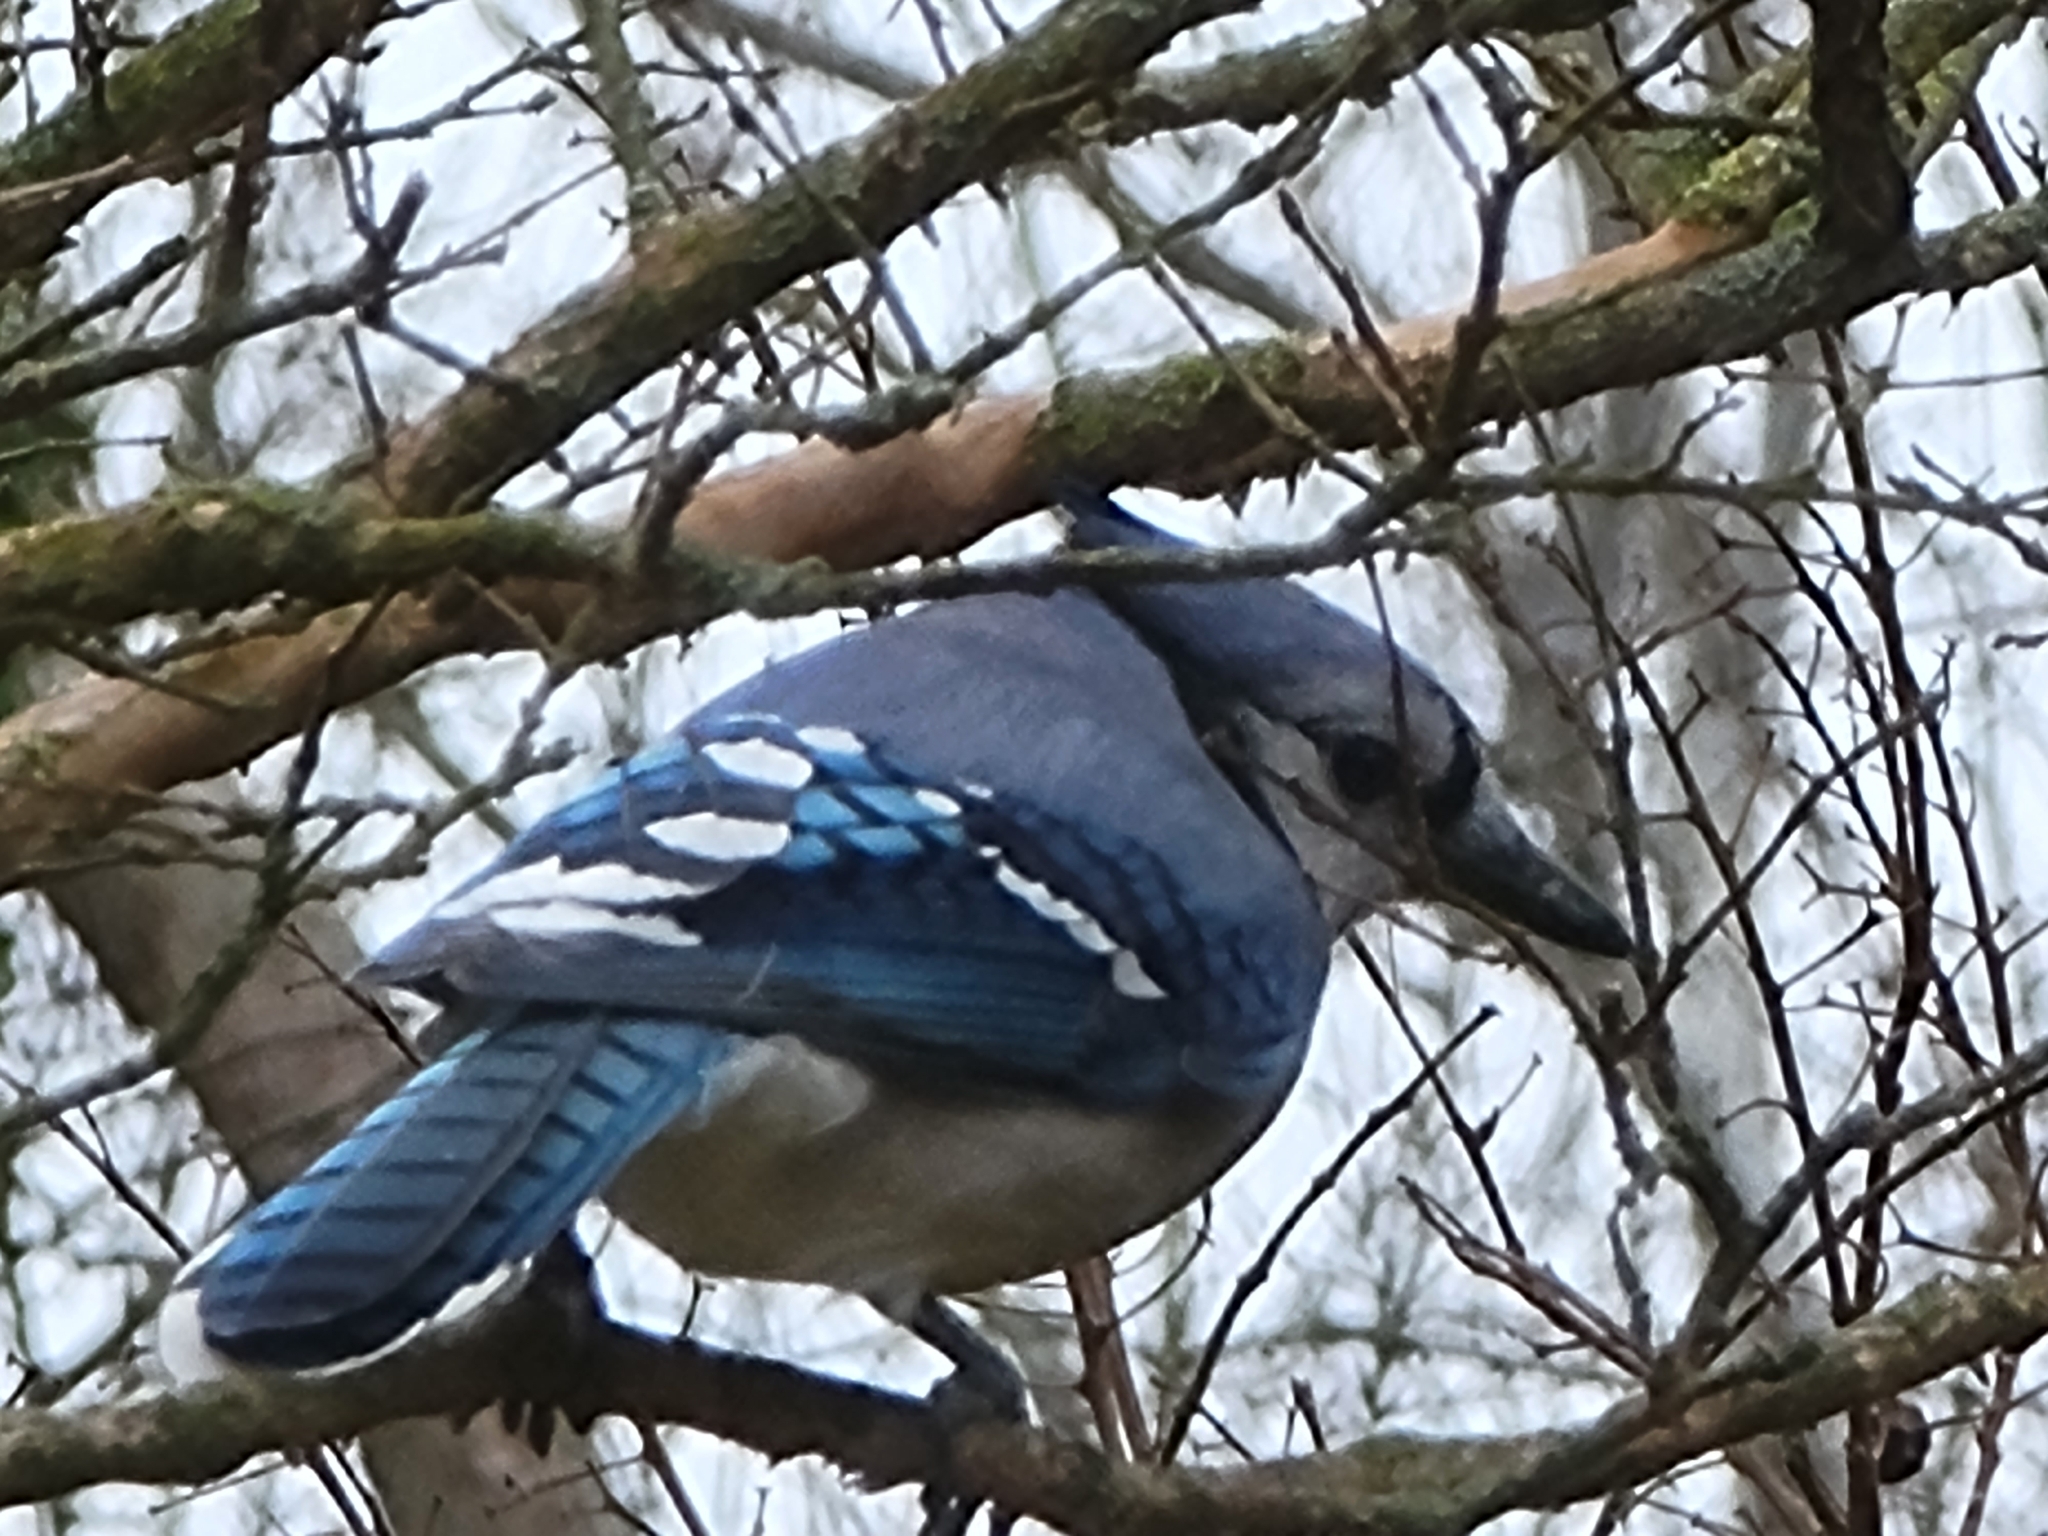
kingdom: Animalia
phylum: Chordata
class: Aves
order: Passeriformes
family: Corvidae
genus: Cyanocitta
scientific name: Cyanocitta cristata
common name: Blue jay
